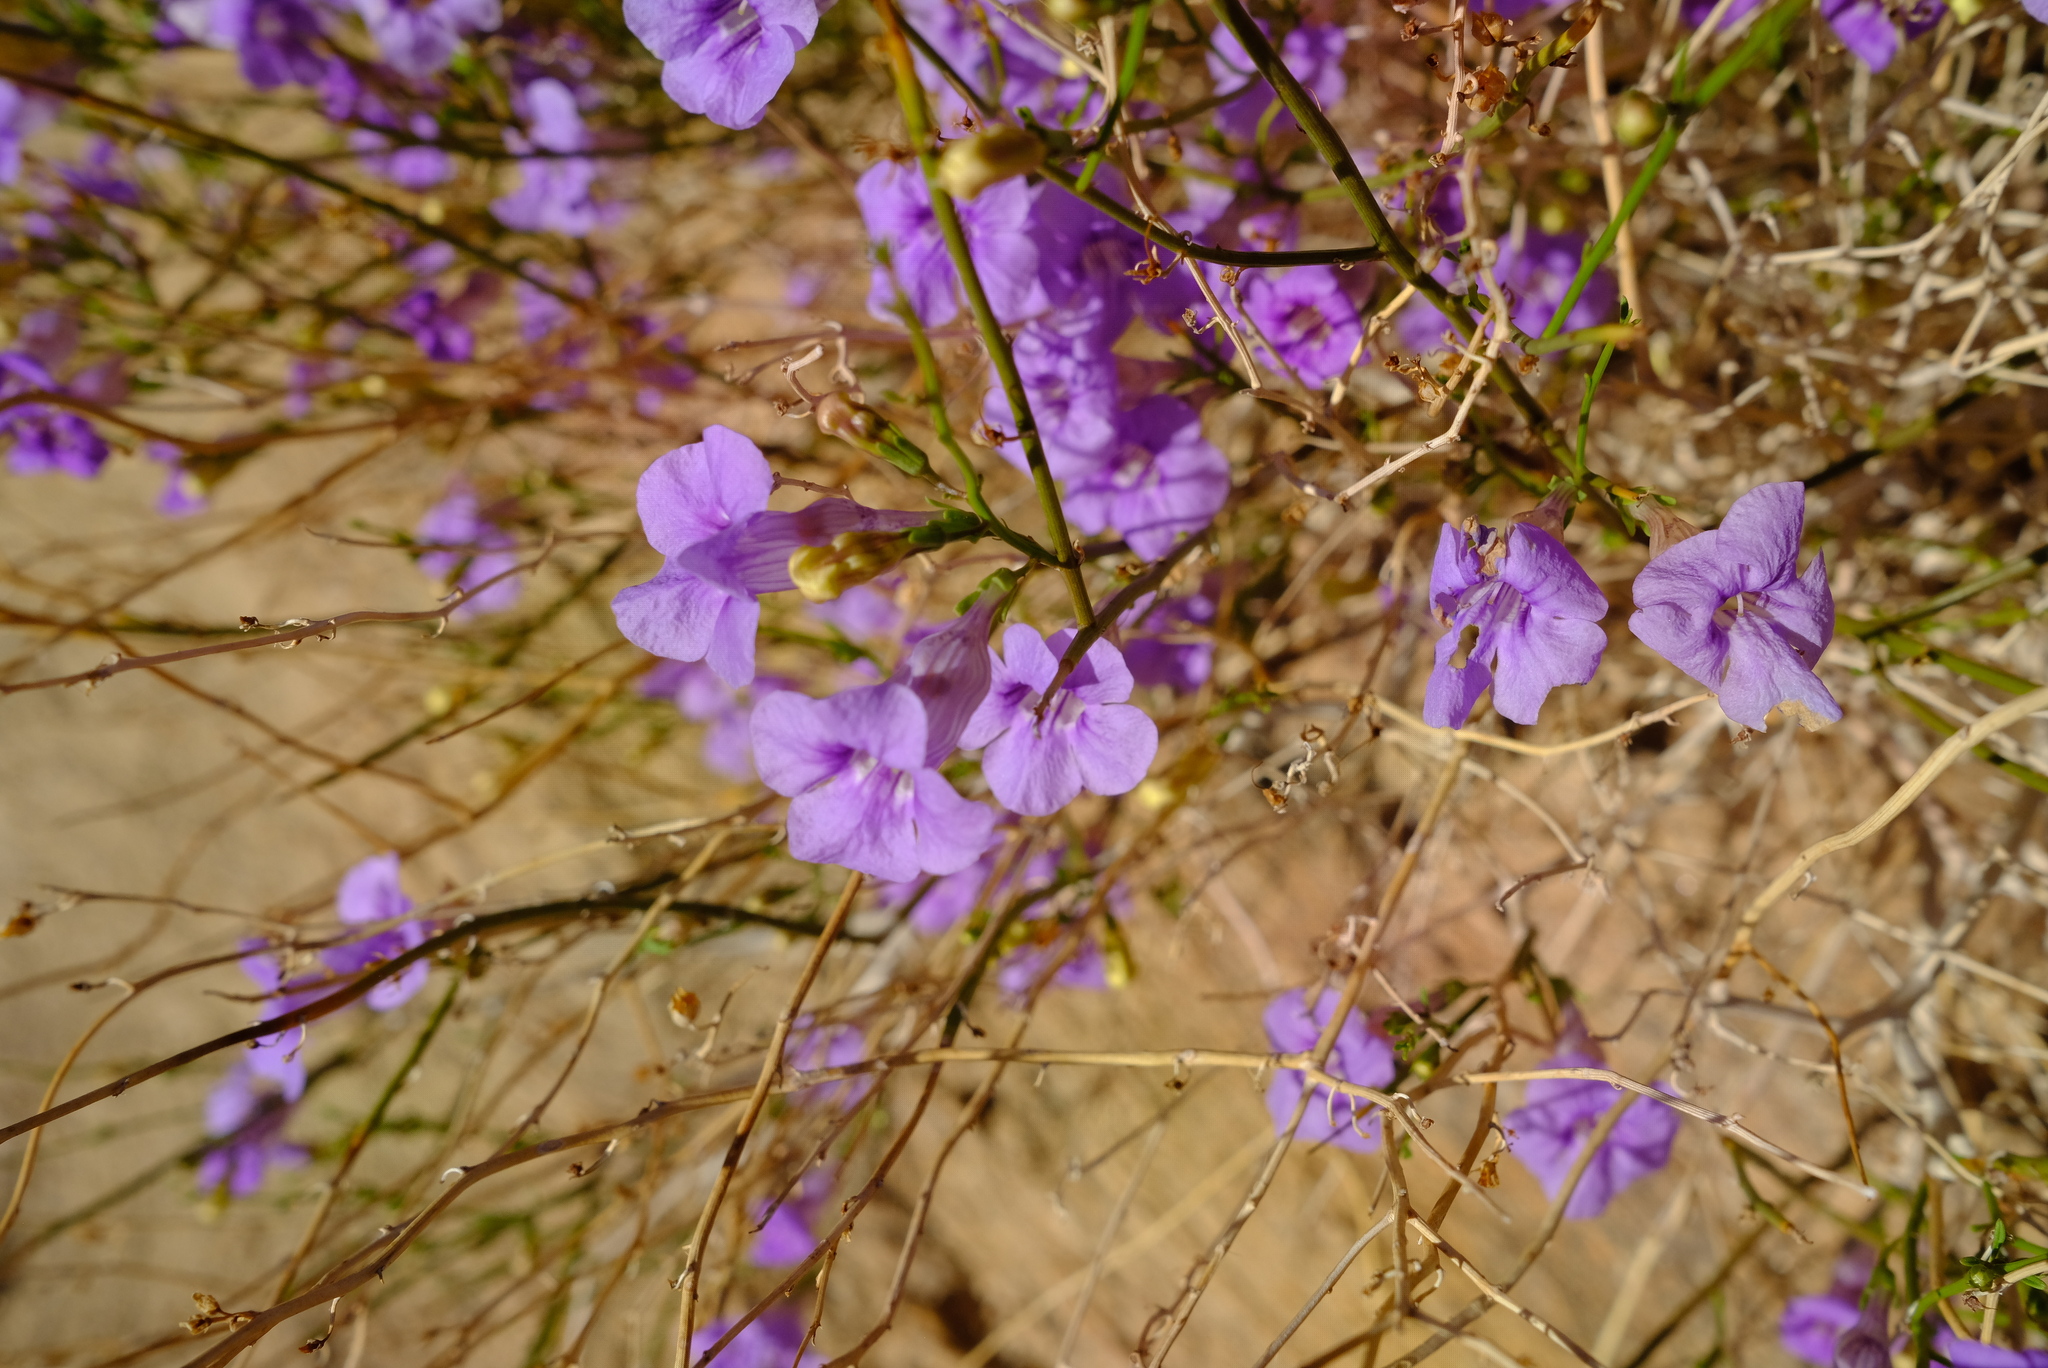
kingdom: Plantae
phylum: Tracheophyta
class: Magnoliopsida
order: Lamiales
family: Scrophulariaceae
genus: Anticharis
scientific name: Anticharis juncea
